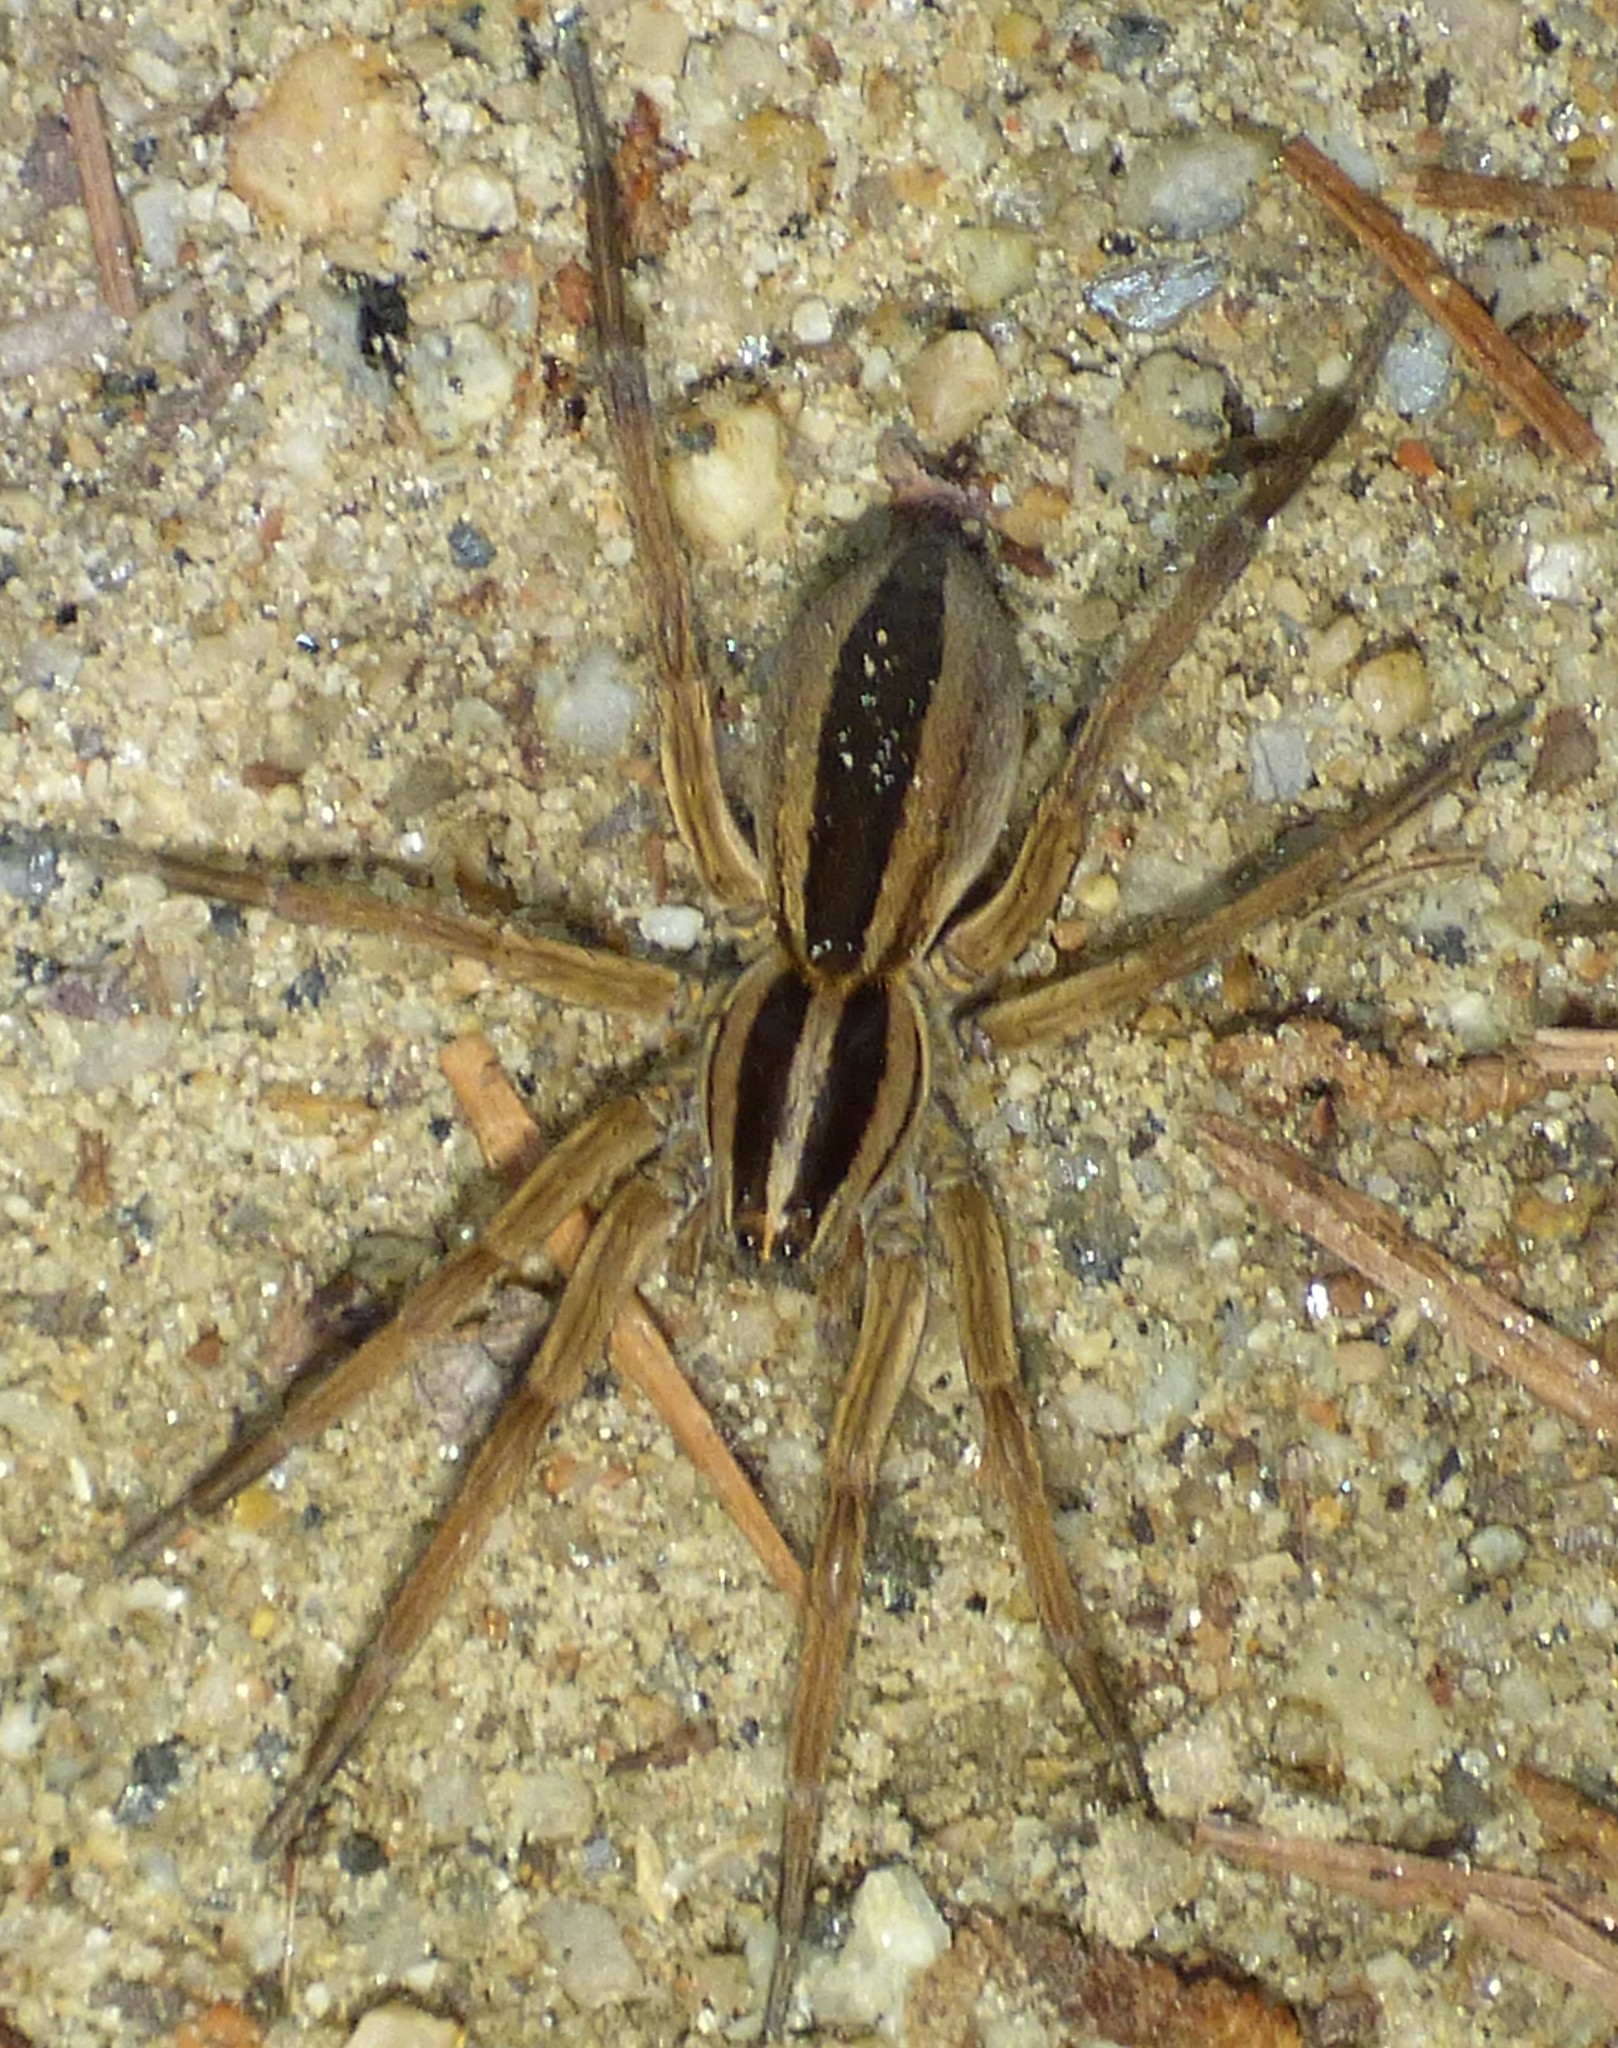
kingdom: Animalia
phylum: Arthropoda
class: Arachnida
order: Araneae
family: Lycosidae
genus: Rabidosa
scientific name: Rabidosa punctulata
